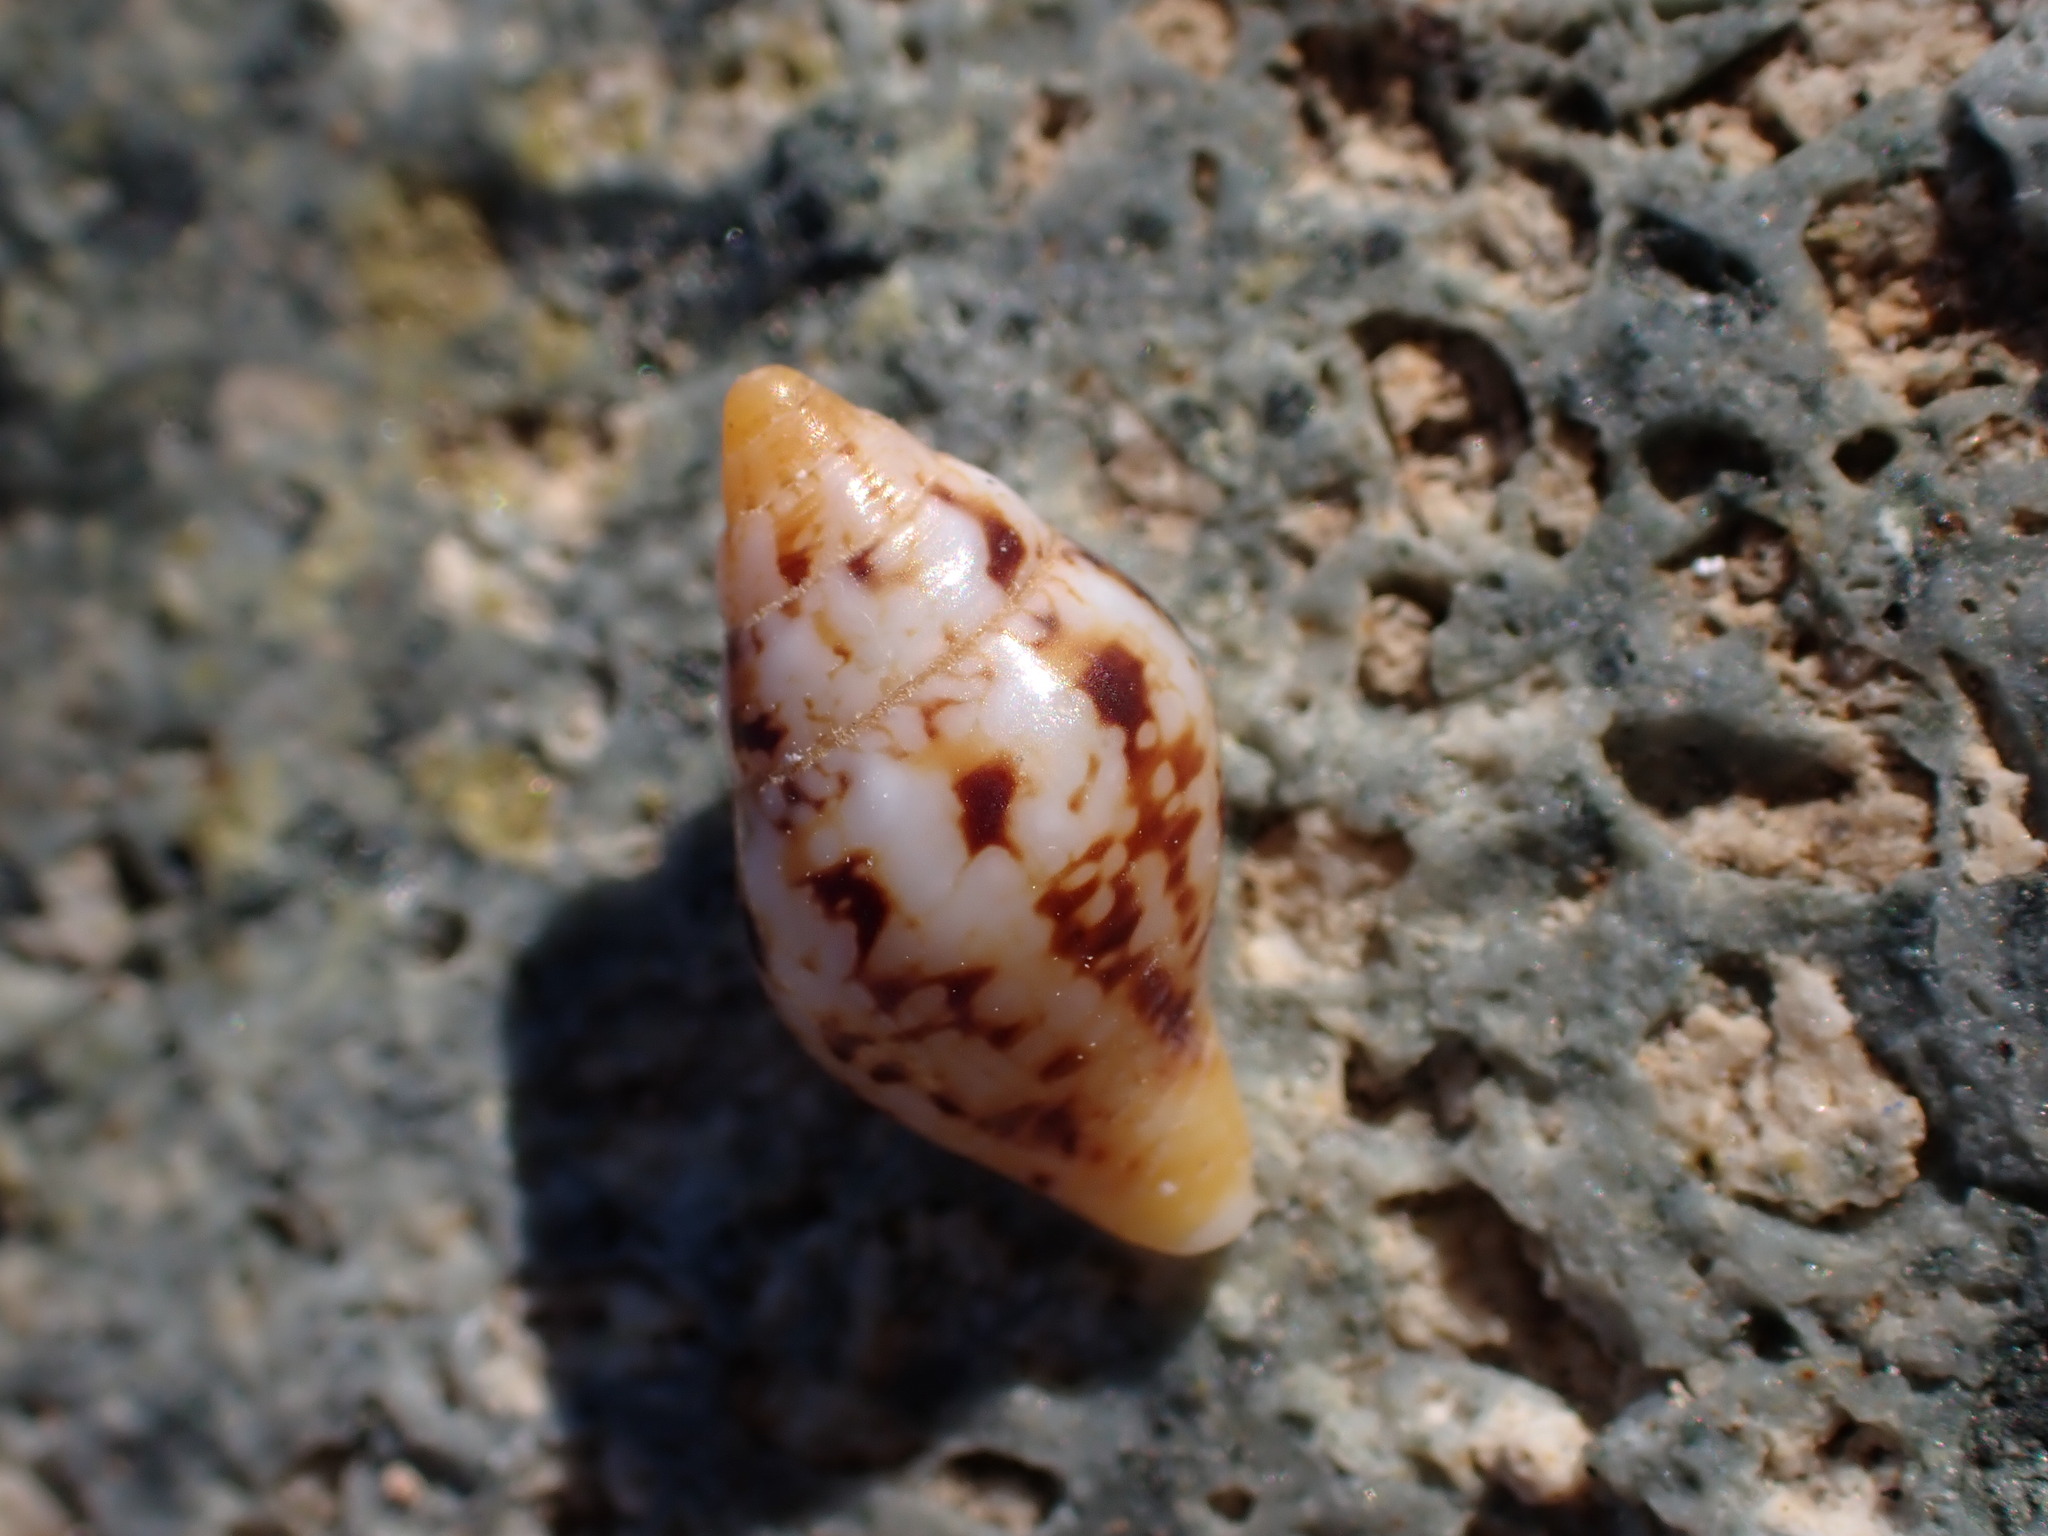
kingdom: Animalia
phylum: Mollusca
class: Gastropoda
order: Neogastropoda
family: Columbellidae
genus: Columbella
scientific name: Columbella rustica
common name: Rustic dove shell
